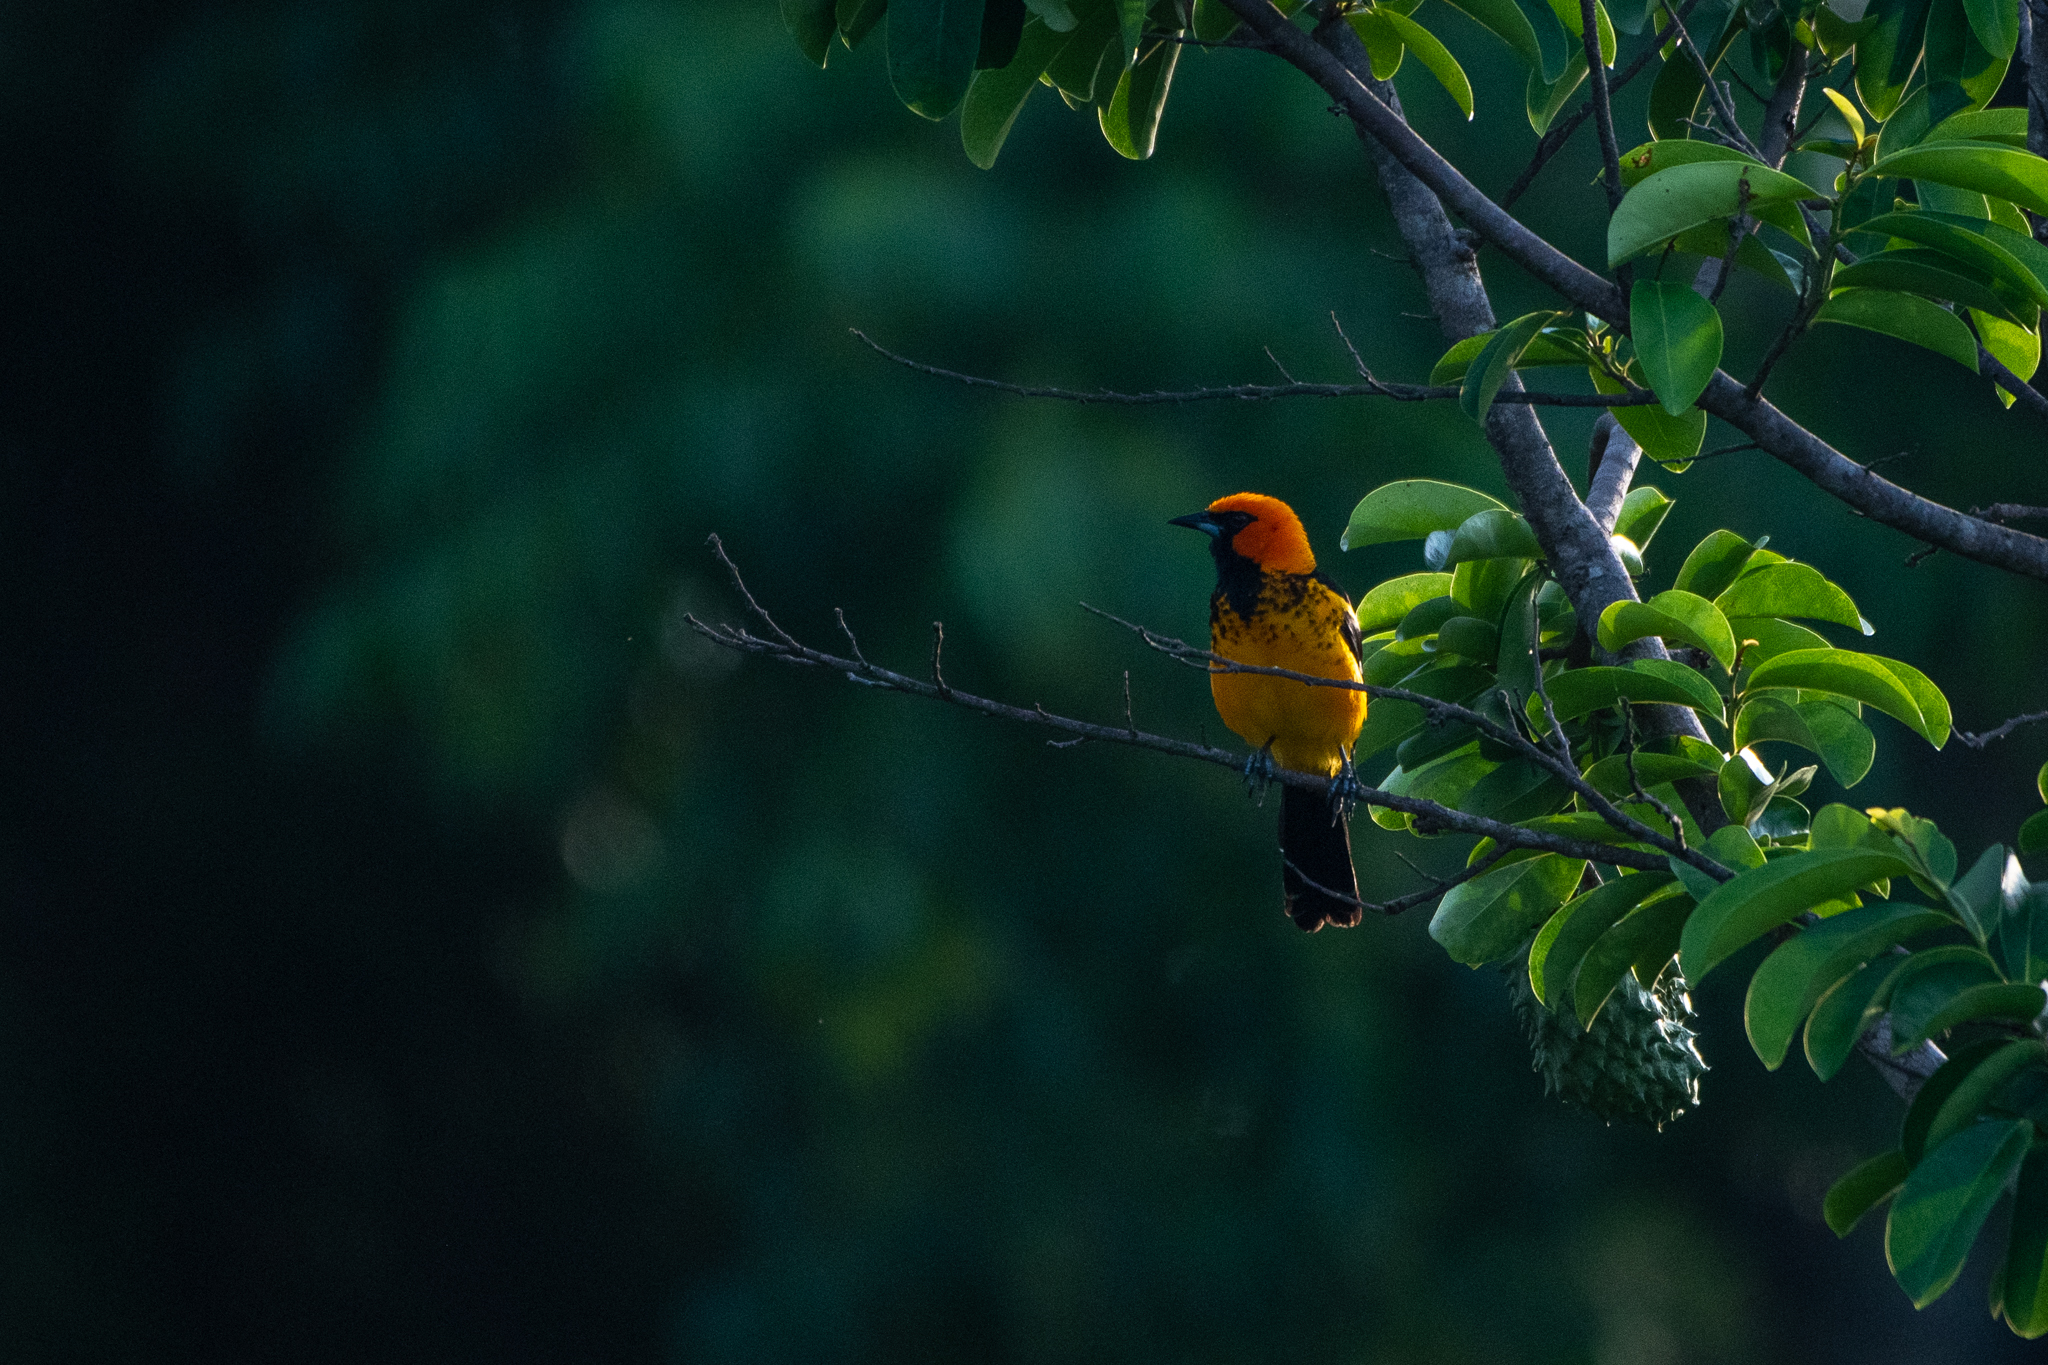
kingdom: Animalia
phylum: Chordata
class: Aves
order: Passeriformes
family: Icteridae
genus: Icterus
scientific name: Icterus pectoralis
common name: Spot-breasted oriole
